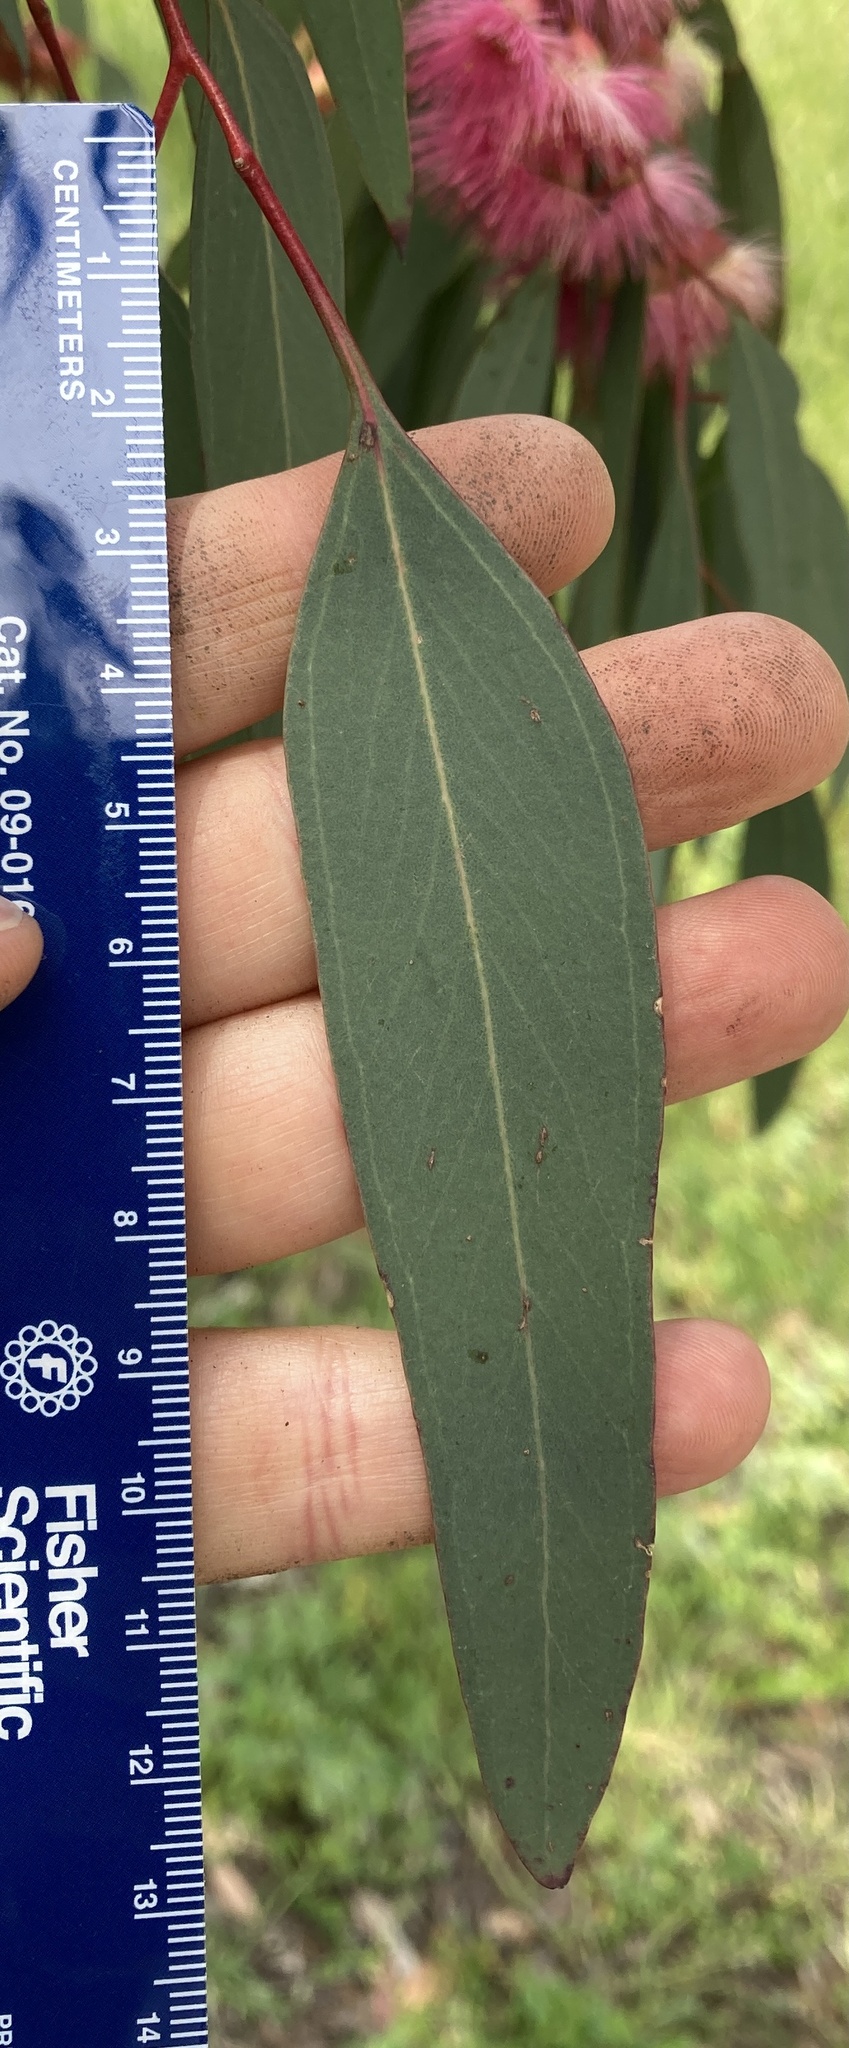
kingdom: Plantae
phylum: Tracheophyta
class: Magnoliopsida
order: Myrtales
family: Myrtaceae
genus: Eucalyptus
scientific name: Eucalyptus sideroxylon
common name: Red ironbark
